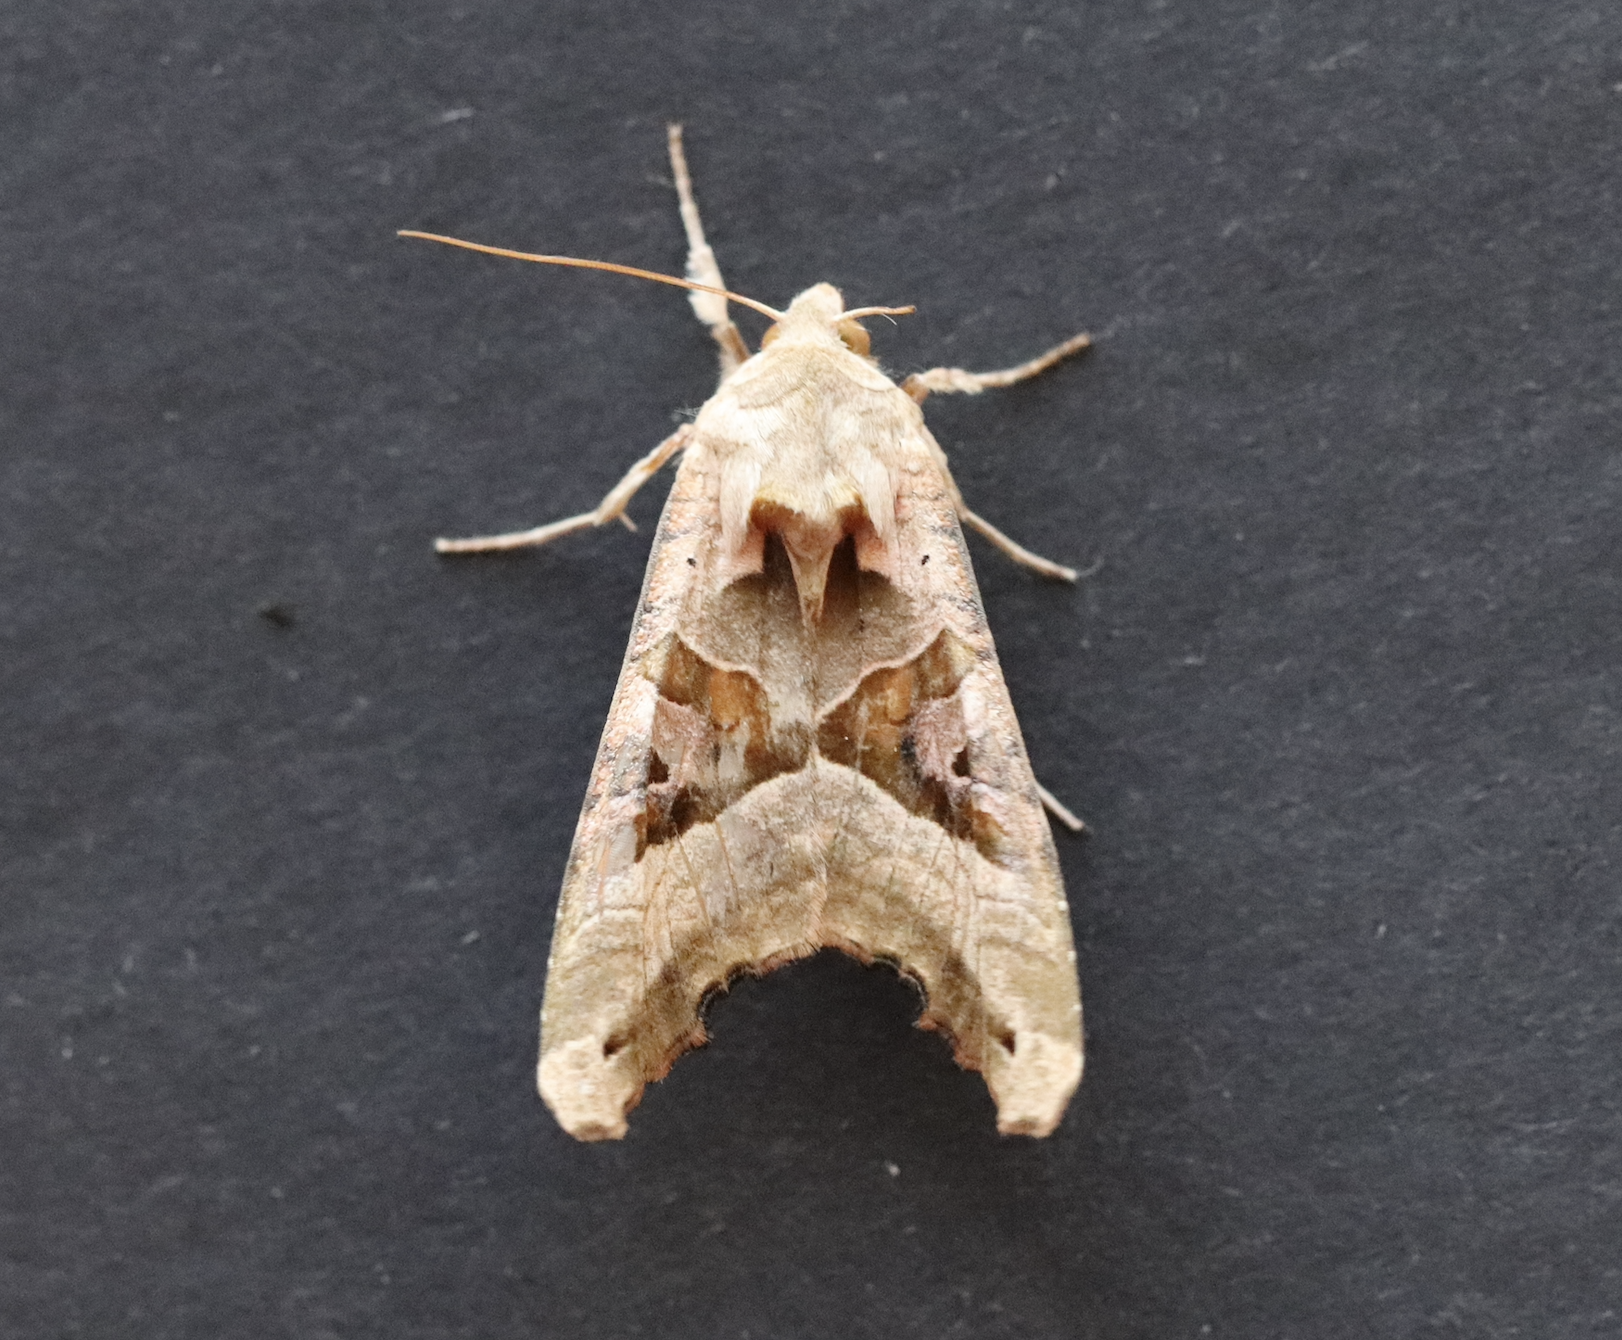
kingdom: Animalia
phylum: Arthropoda
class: Insecta
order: Lepidoptera
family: Noctuidae
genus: Phlogophora
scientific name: Phlogophora meticulosa
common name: Angle shades
